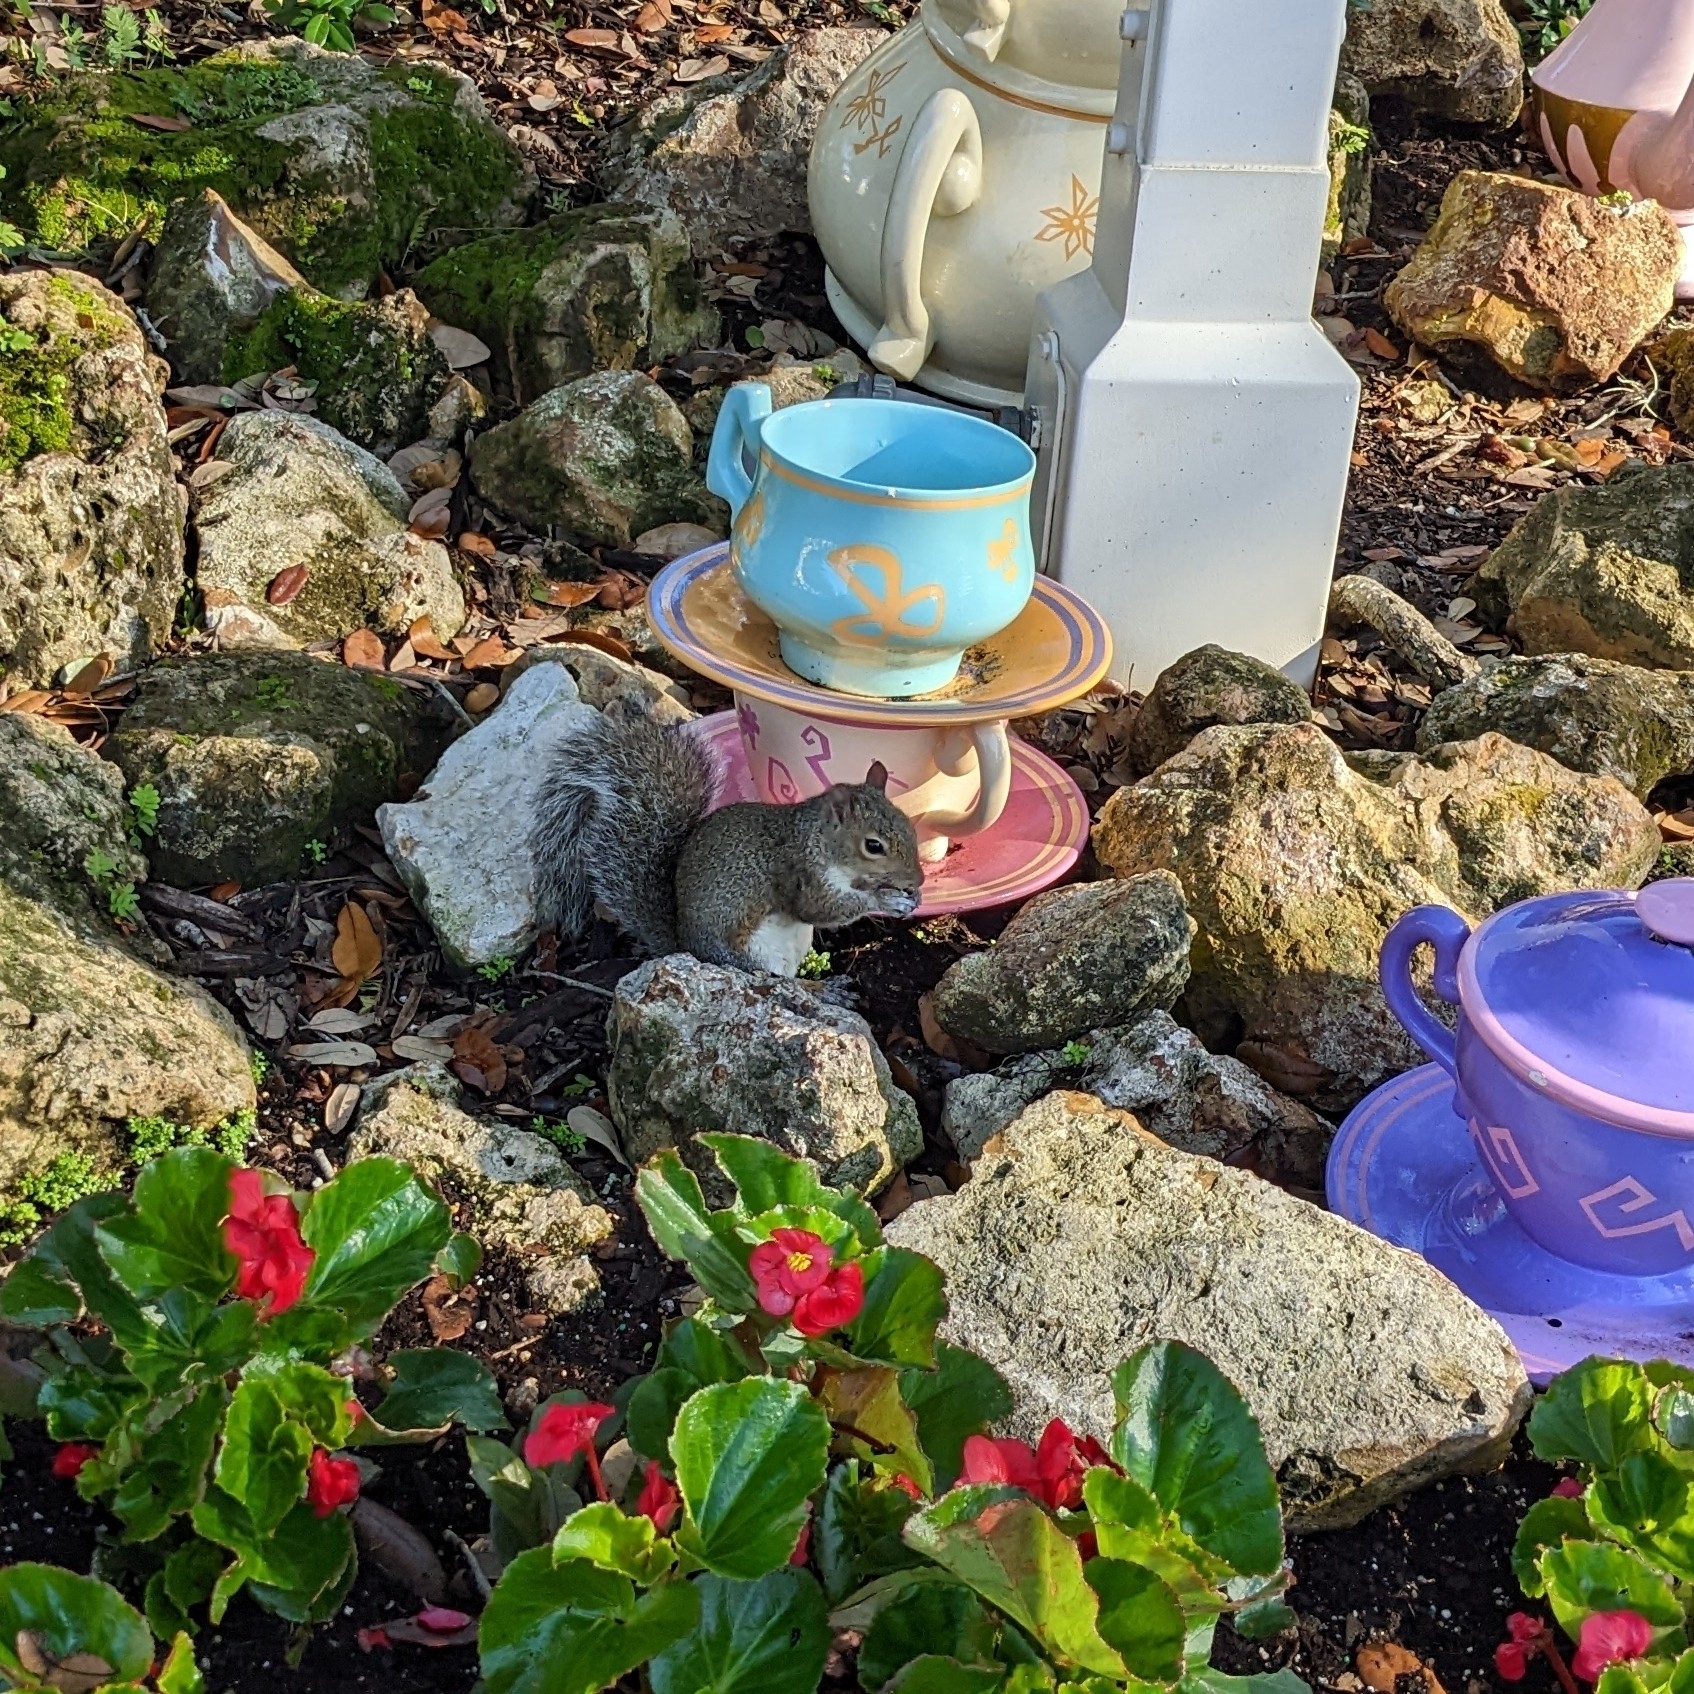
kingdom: Animalia
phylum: Chordata
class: Mammalia
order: Rodentia
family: Sciuridae
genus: Sciurus
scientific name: Sciurus carolinensis
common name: Eastern gray squirrel
